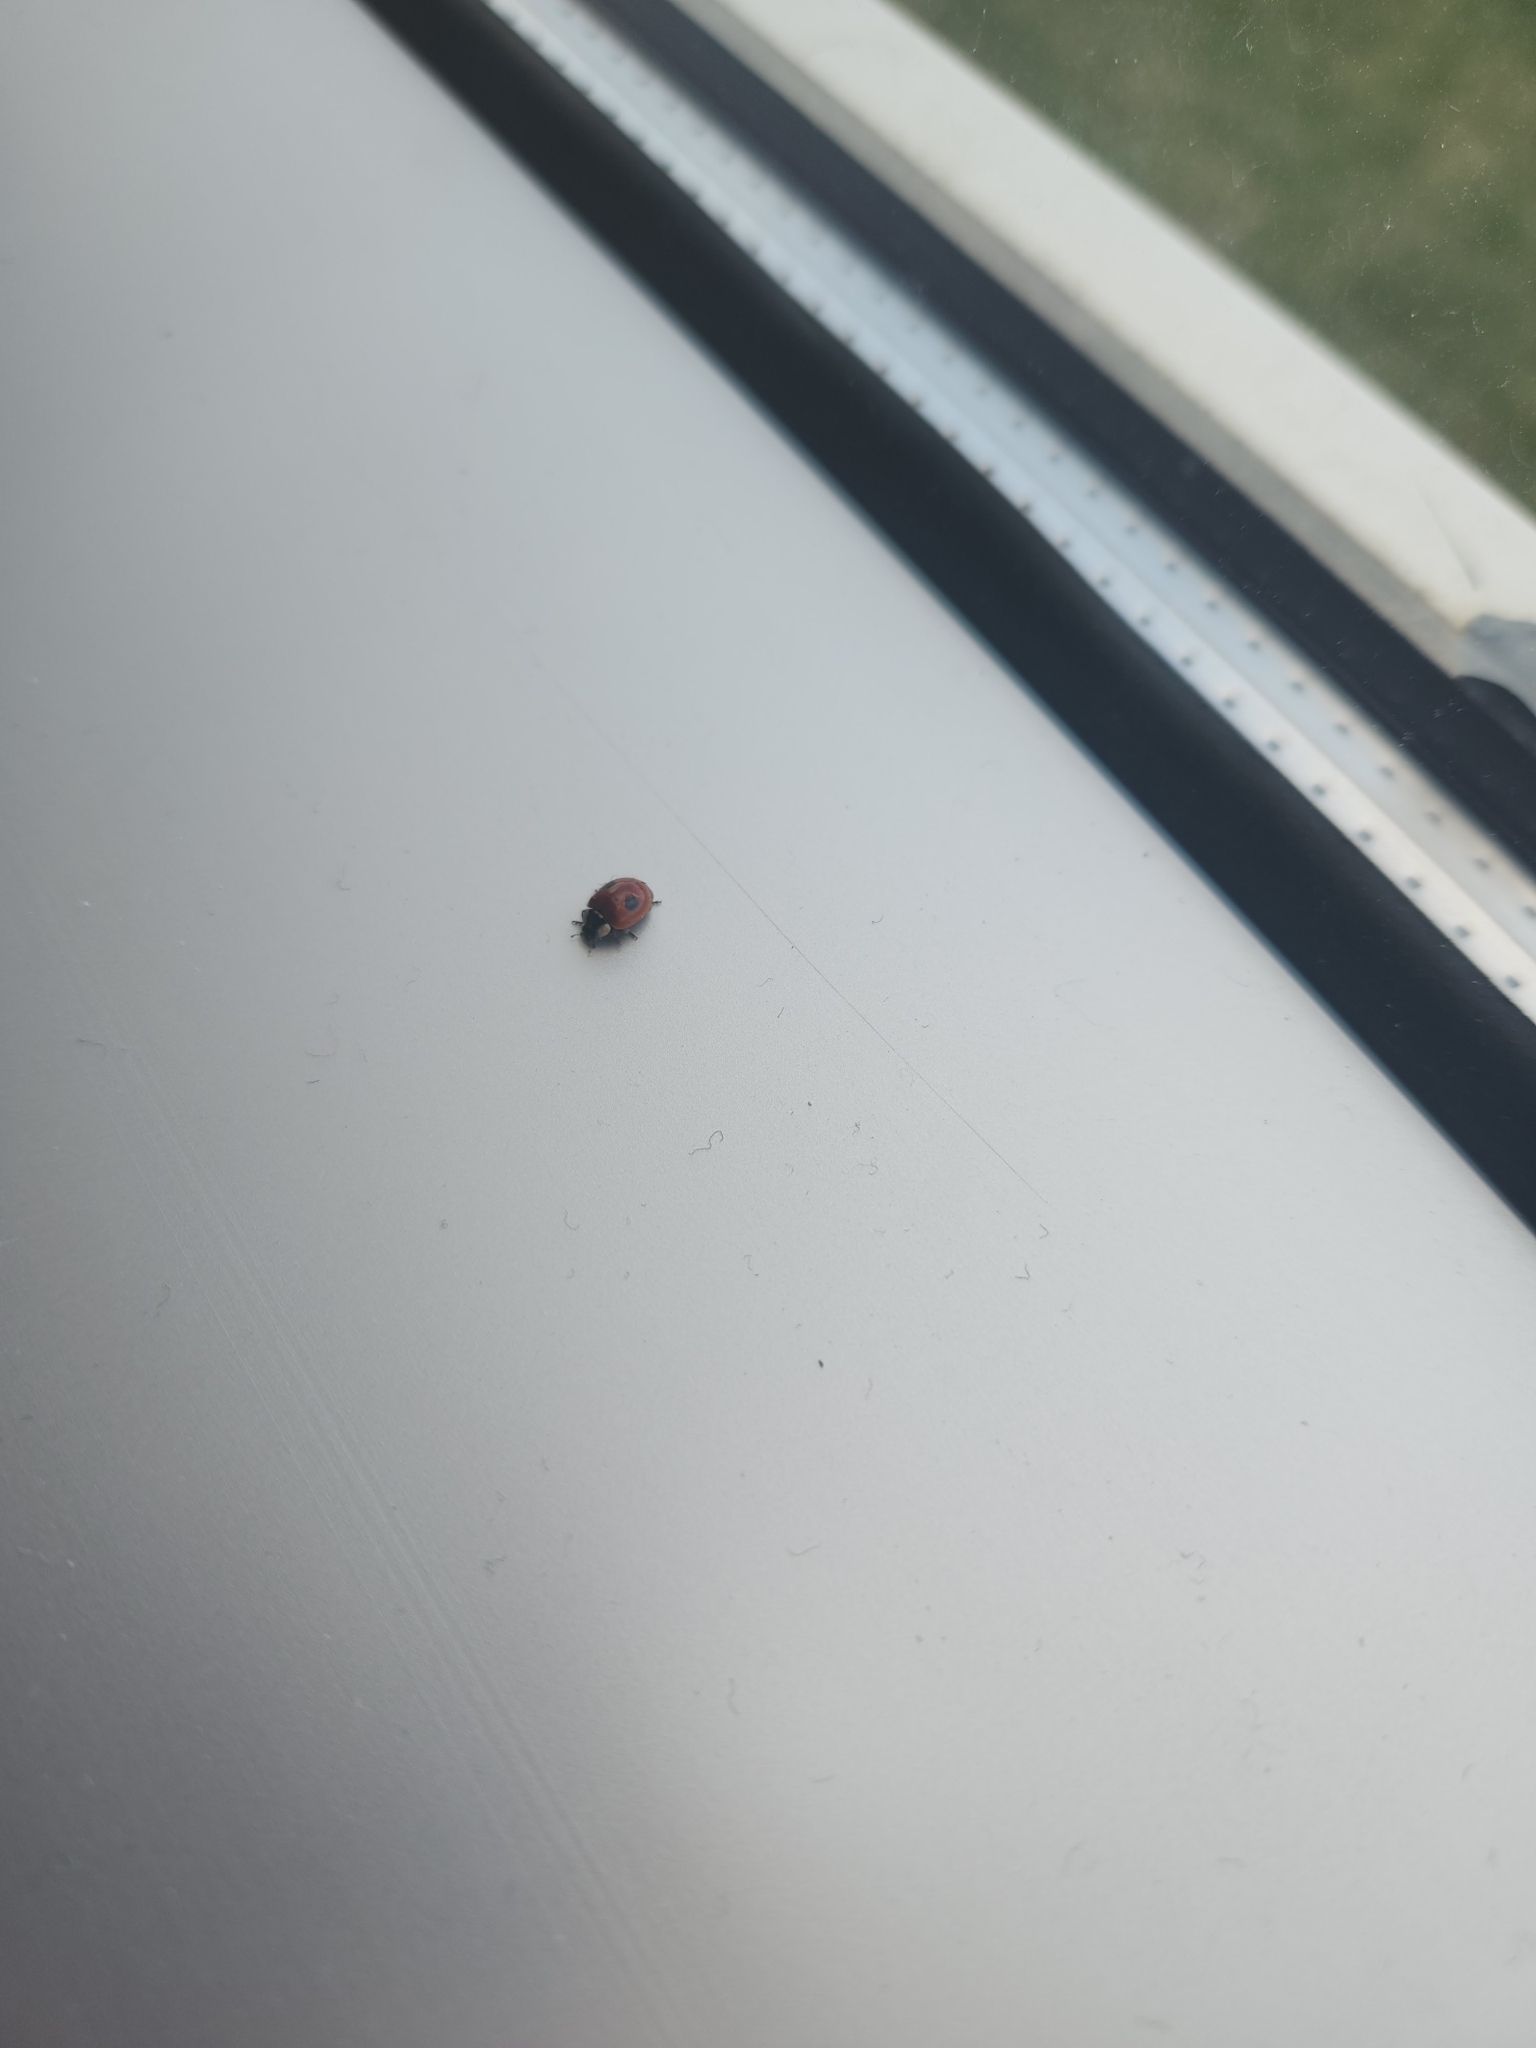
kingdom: Animalia
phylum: Arthropoda
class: Insecta
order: Coleoptera
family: Coccinellidae
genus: Adalia
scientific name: Adalia bipunctata
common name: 2-spot ladybird
